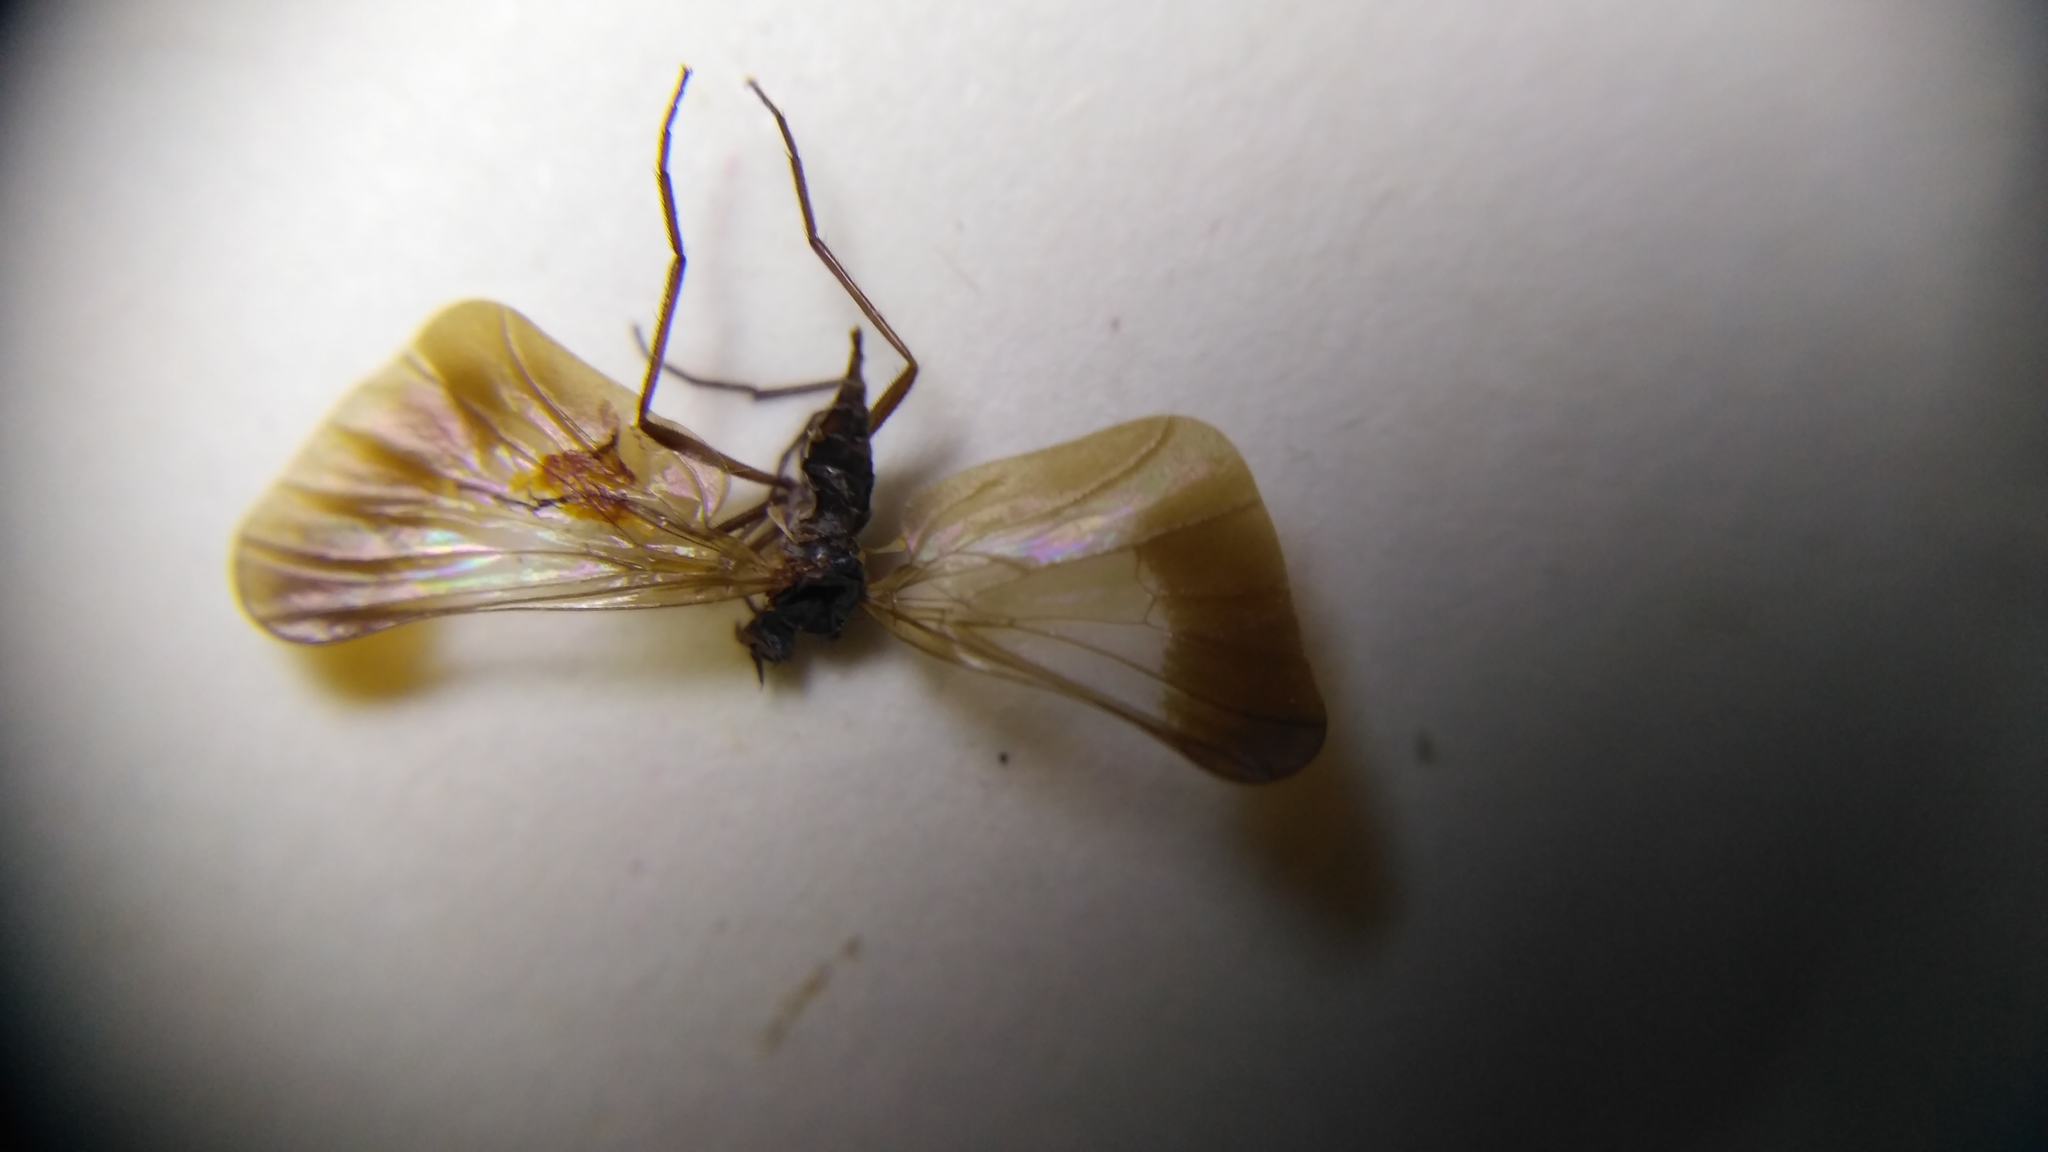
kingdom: Animalia
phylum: Arthropoda
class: Insecta
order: Diptera
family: Empididae
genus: Rhamphomyia
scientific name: Rhamphomyia marginata
